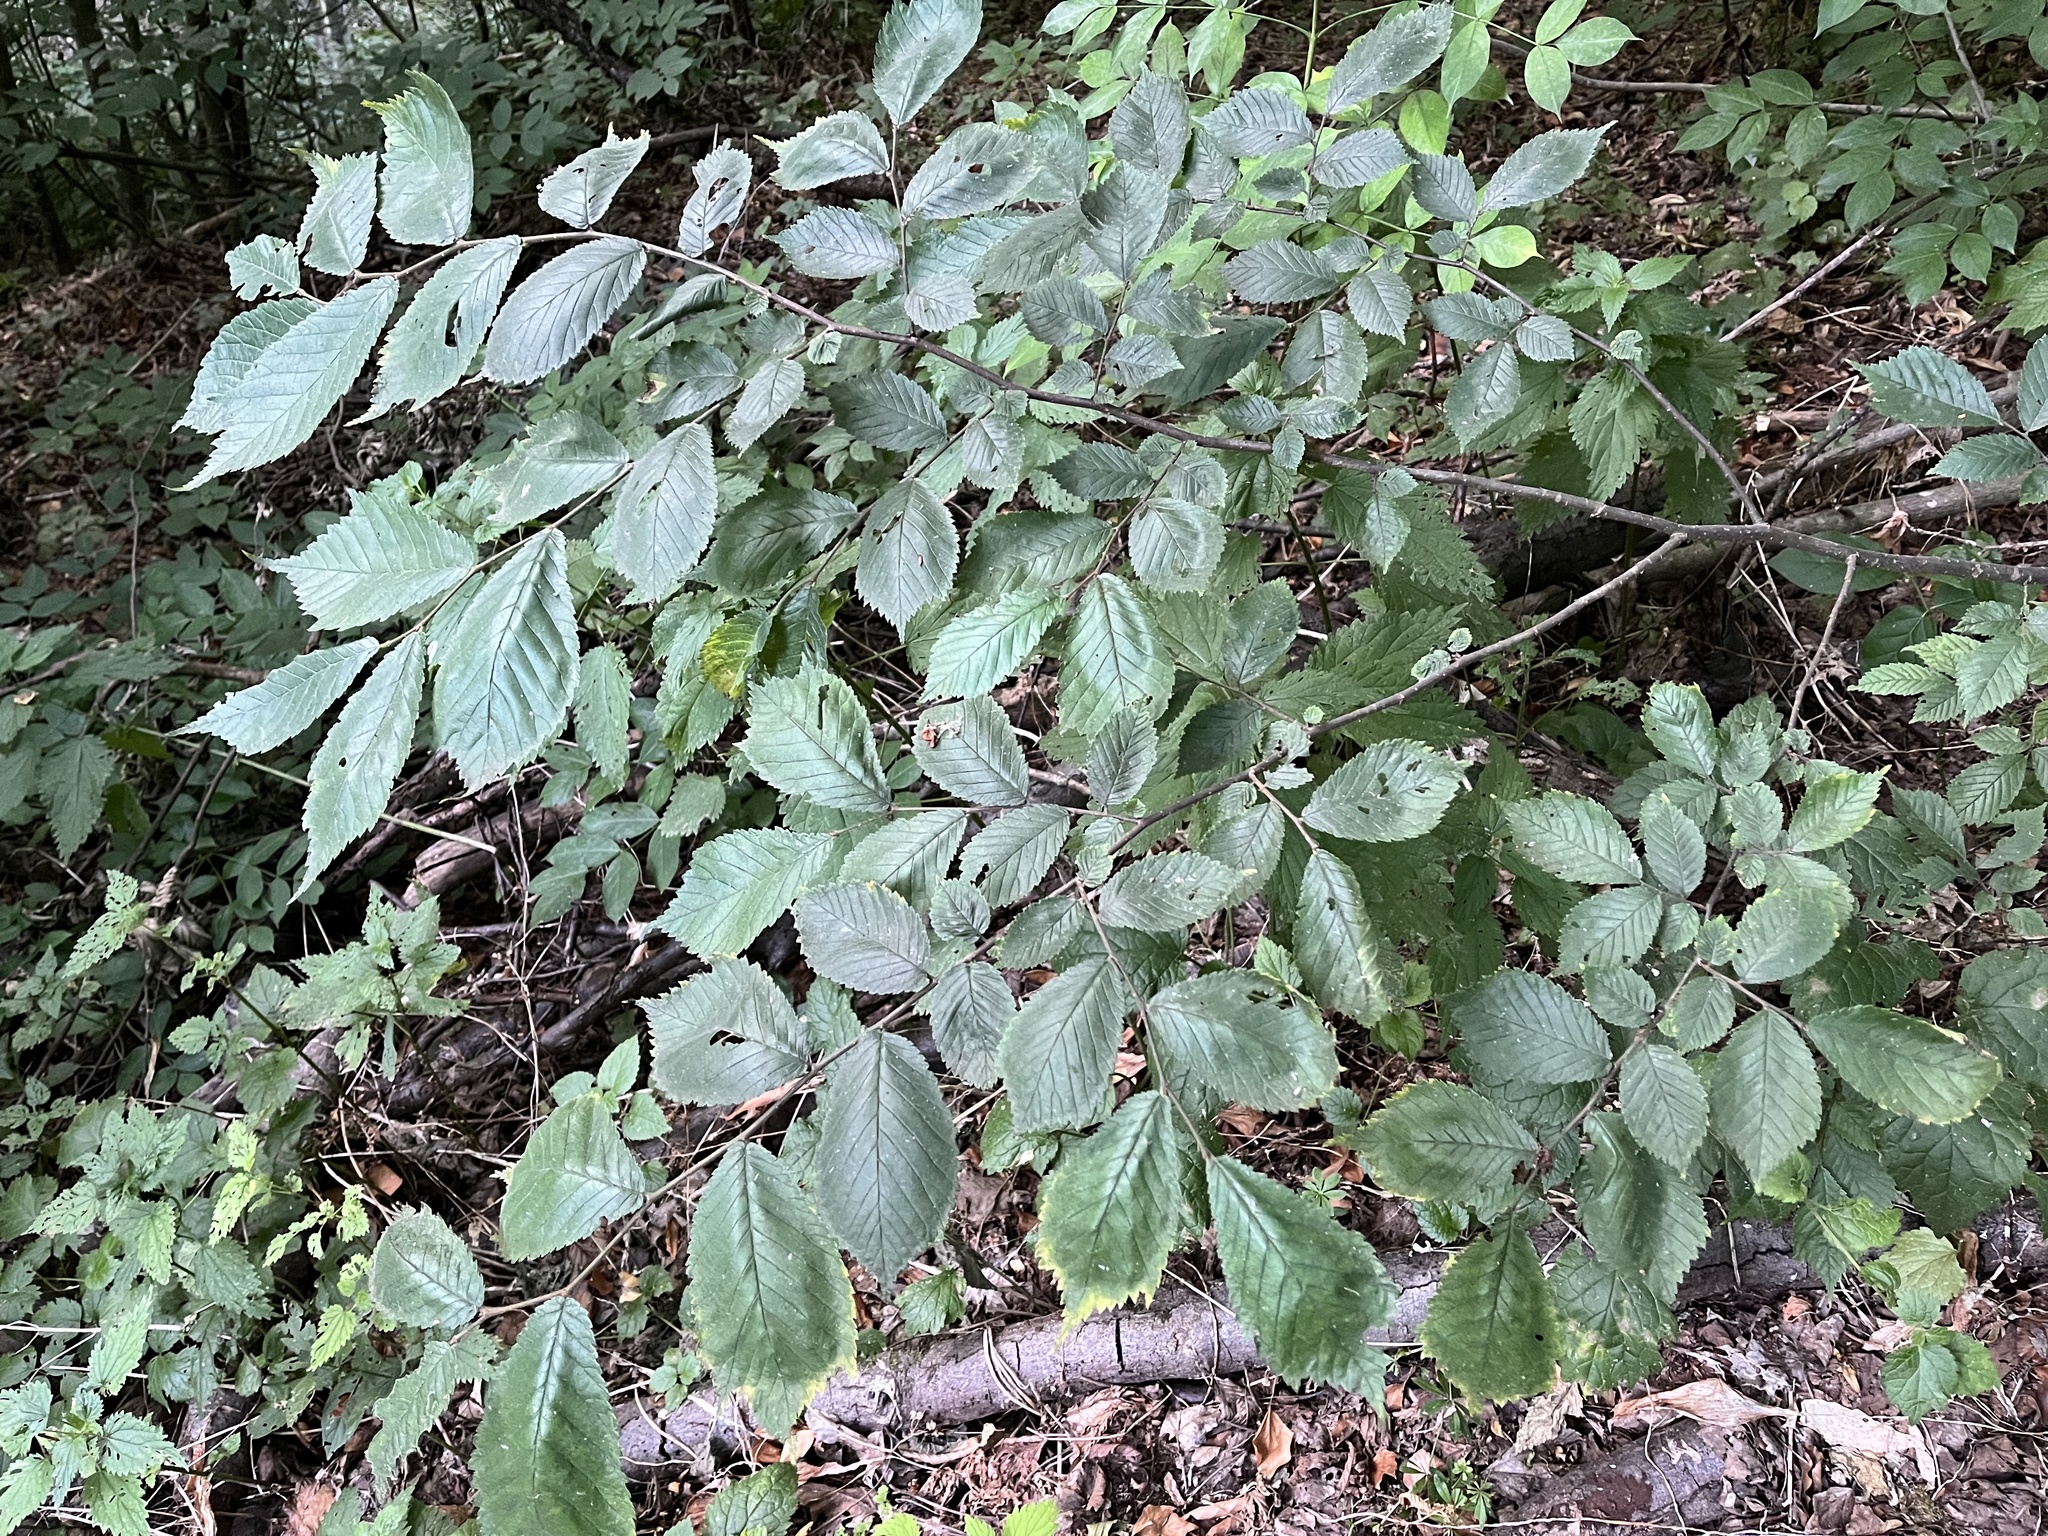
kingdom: Plantae
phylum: Tracheophyta
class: Magnoliopsida
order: Rosales
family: Ulmaceae
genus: Ulmus
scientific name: Ulmus glabra
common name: Wych elm
